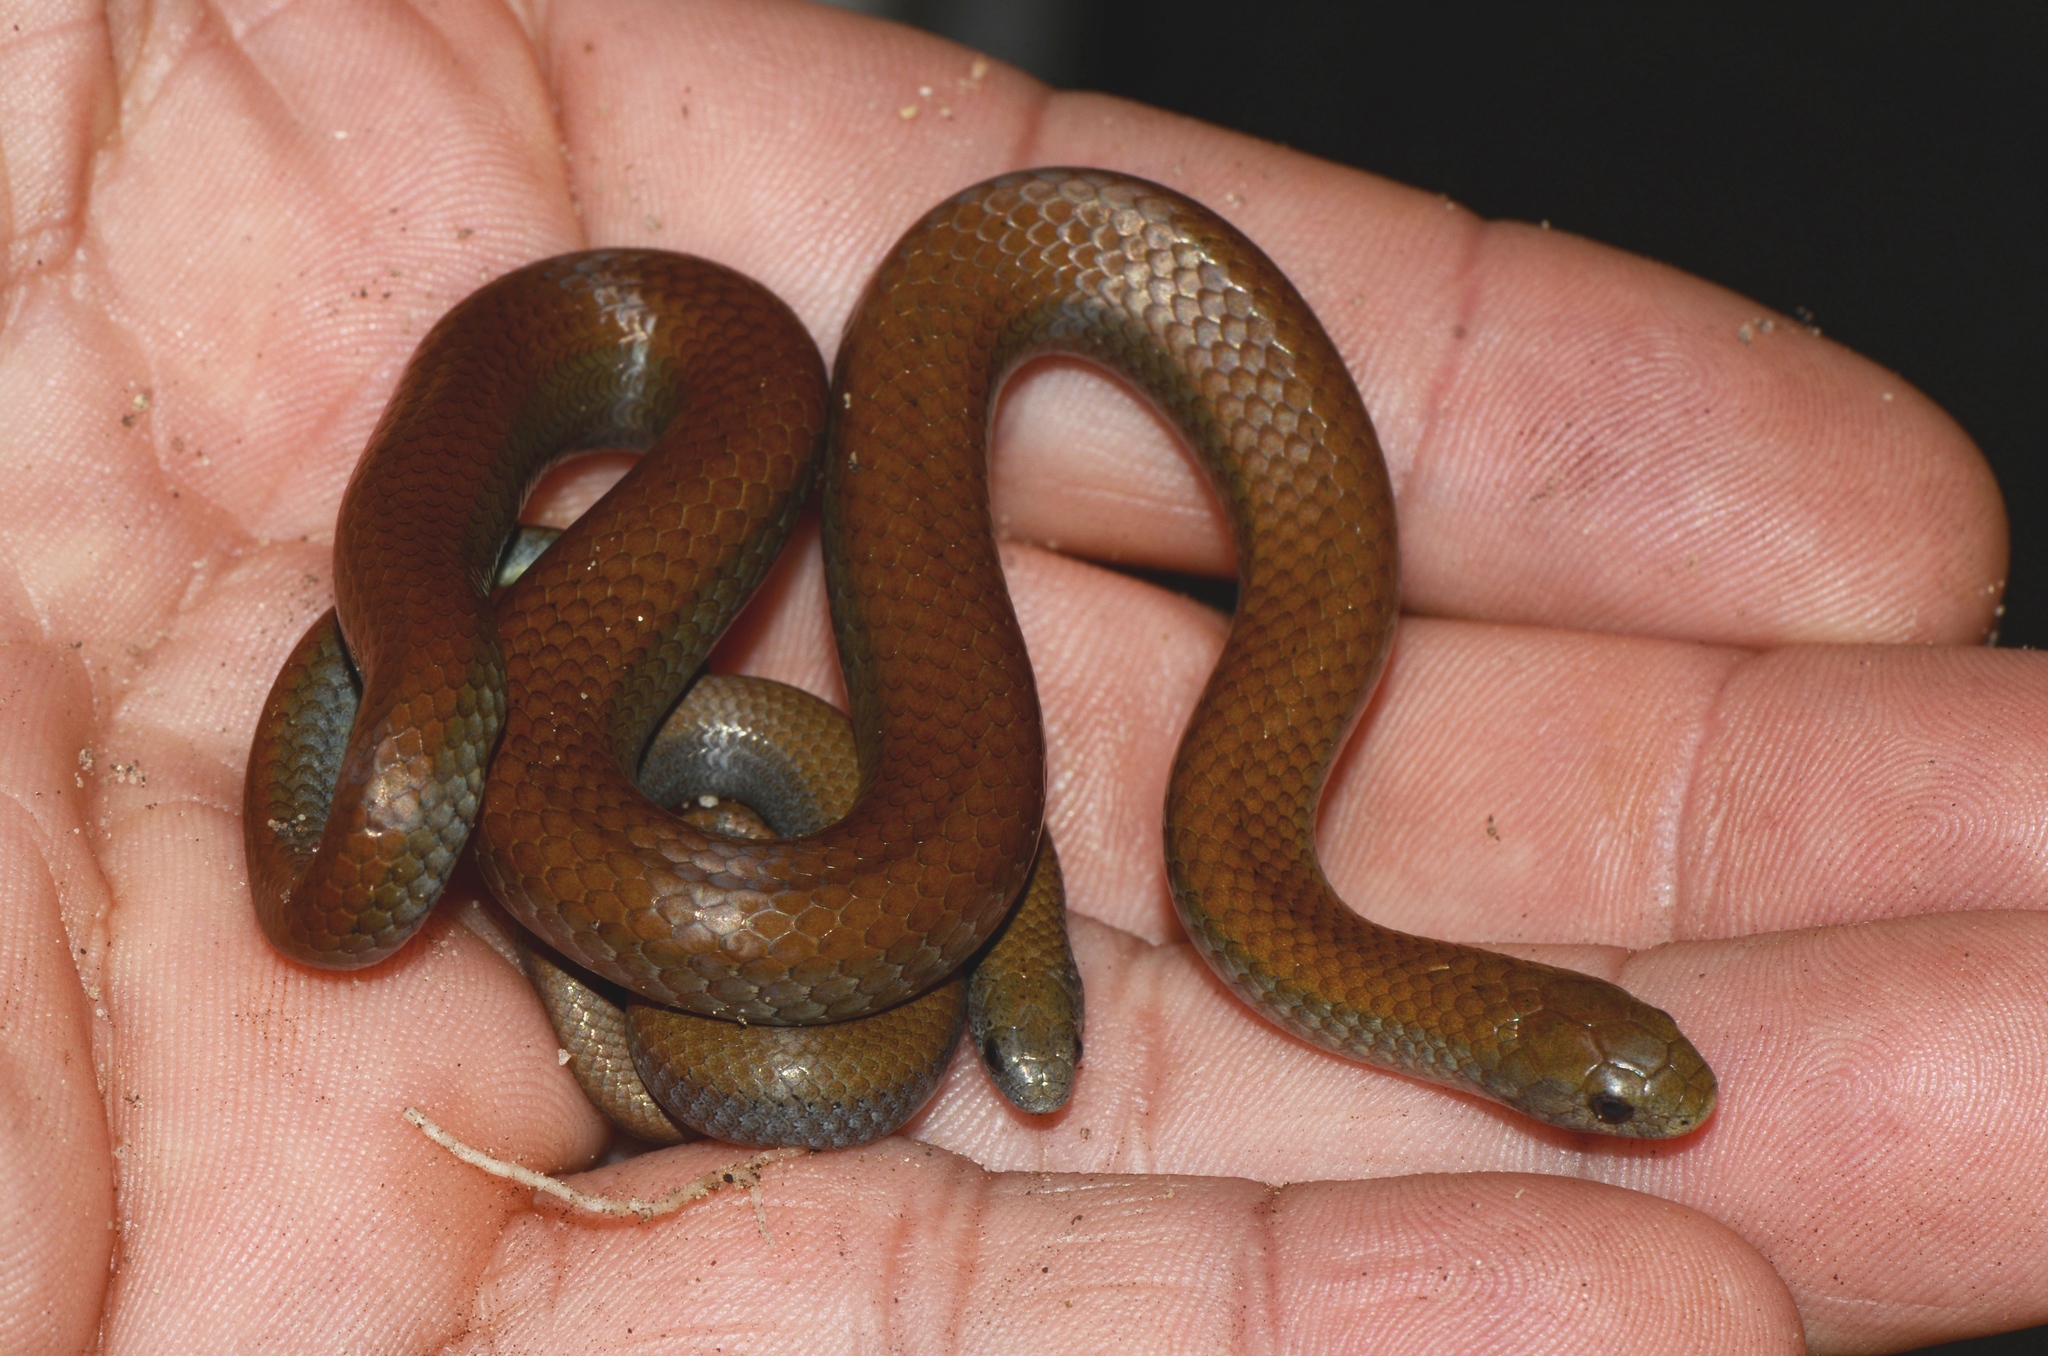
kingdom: Animalia
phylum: Chordata
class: Squamata
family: Pseudoxyrhophiidae
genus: Duberria
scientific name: Duberria lutrix
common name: Common slug eater
